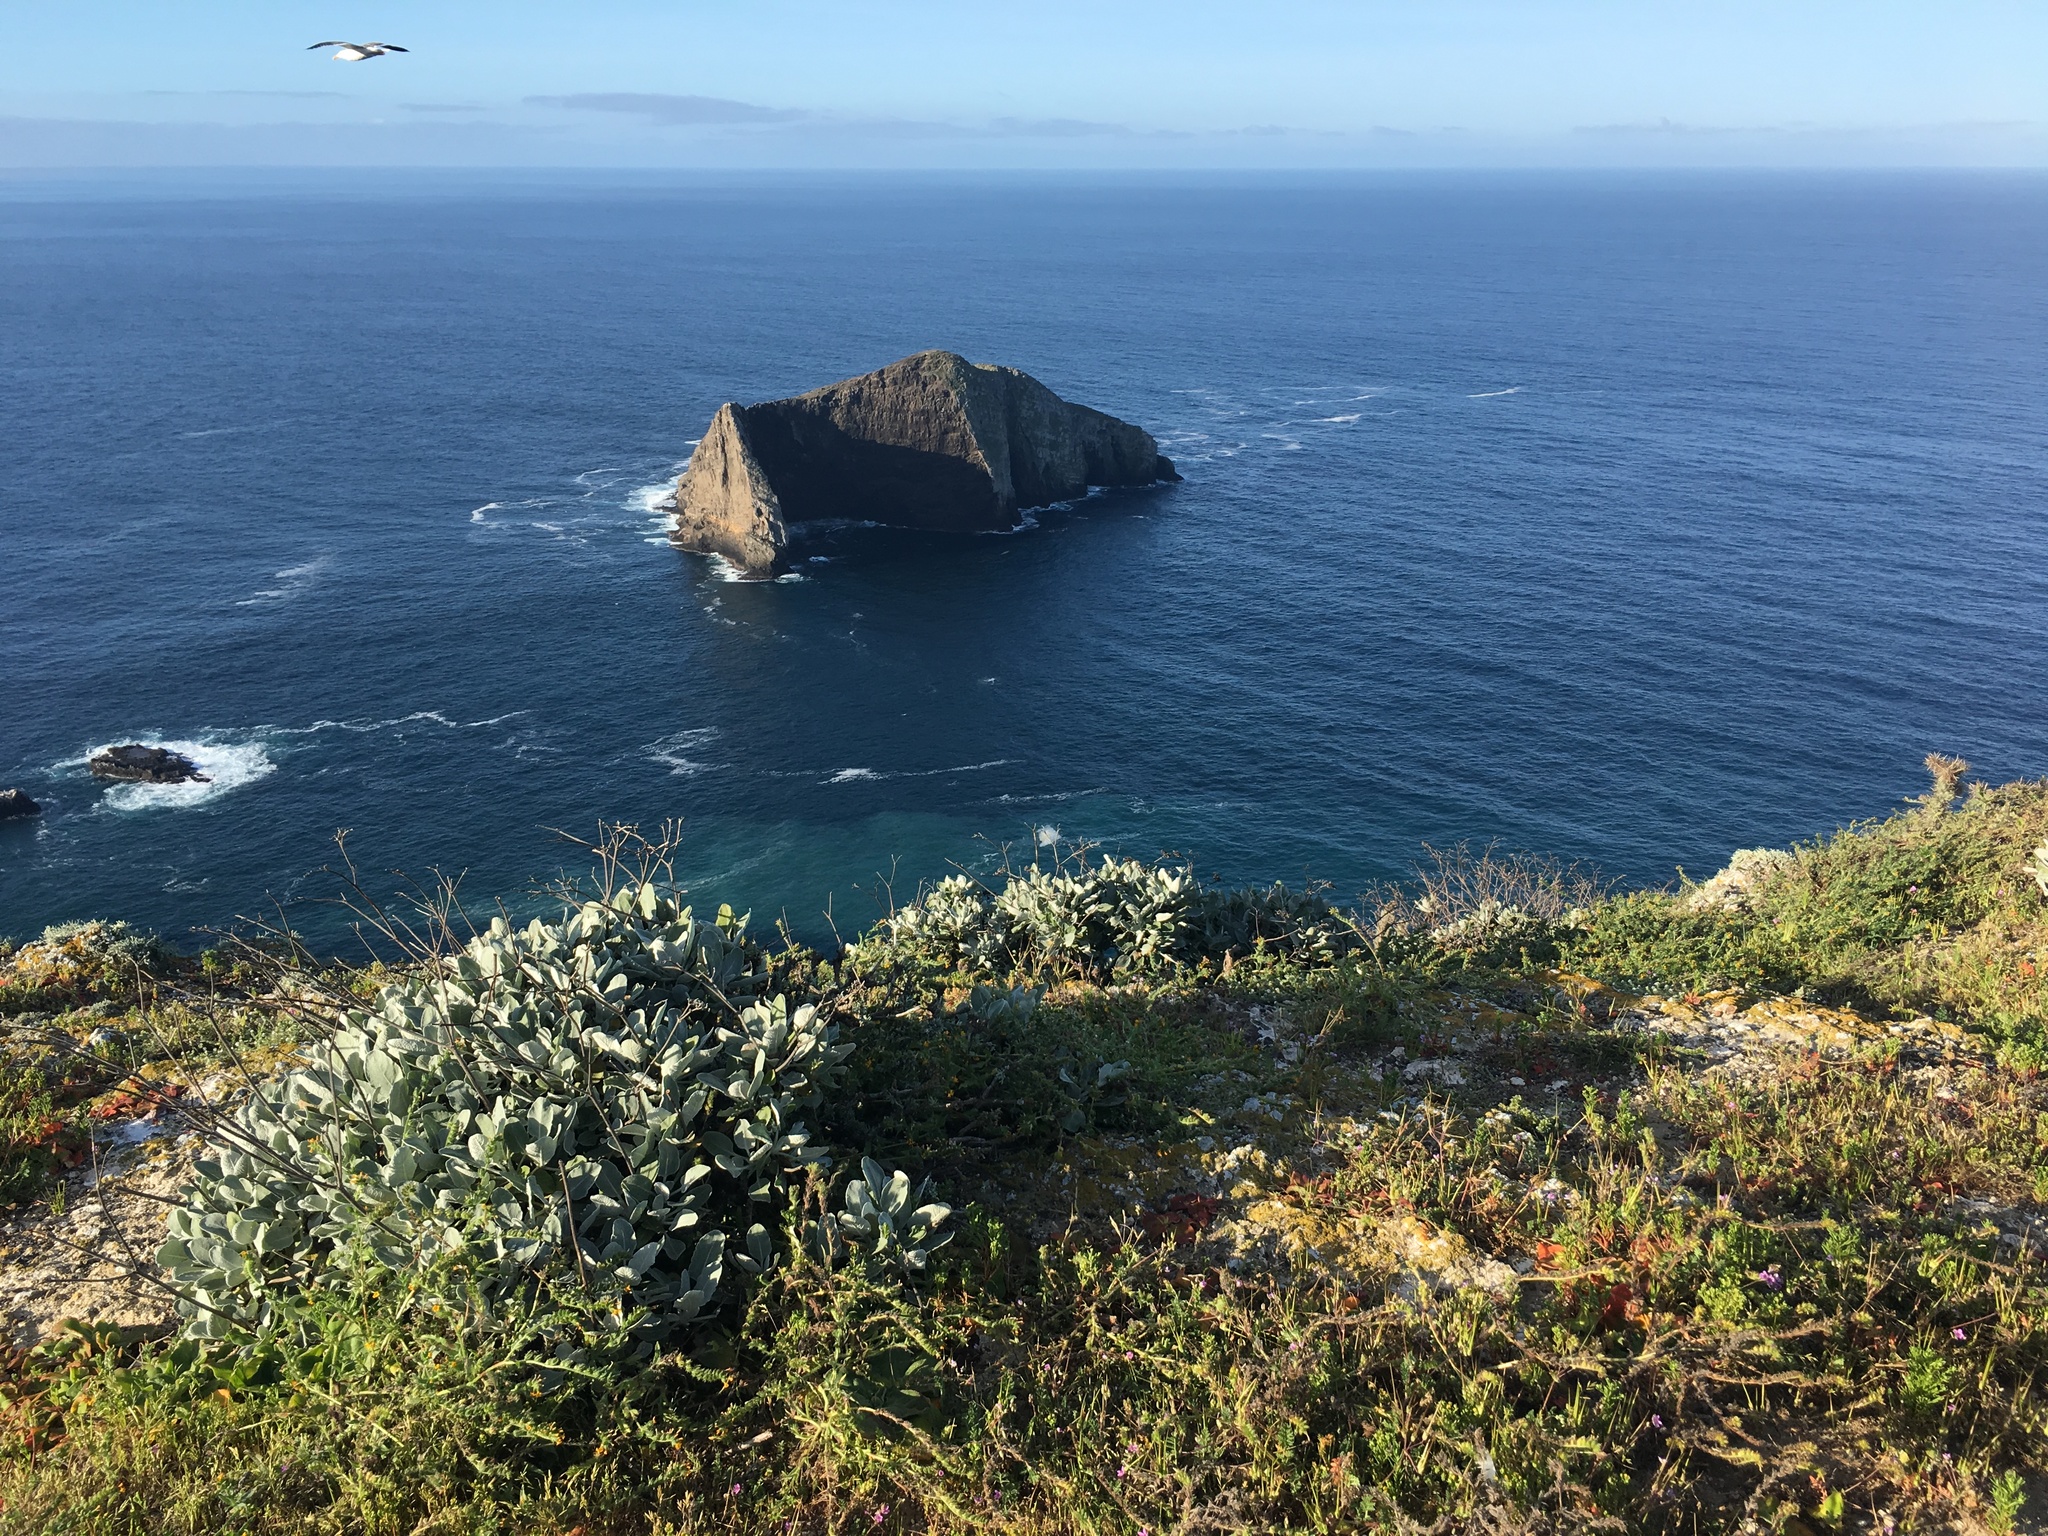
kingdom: Plantae
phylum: Tracheophyta
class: Magnoliopsida
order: Caryophyllales
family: Polygonaceae
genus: Eriogonum
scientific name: Eriogonum giganteum
